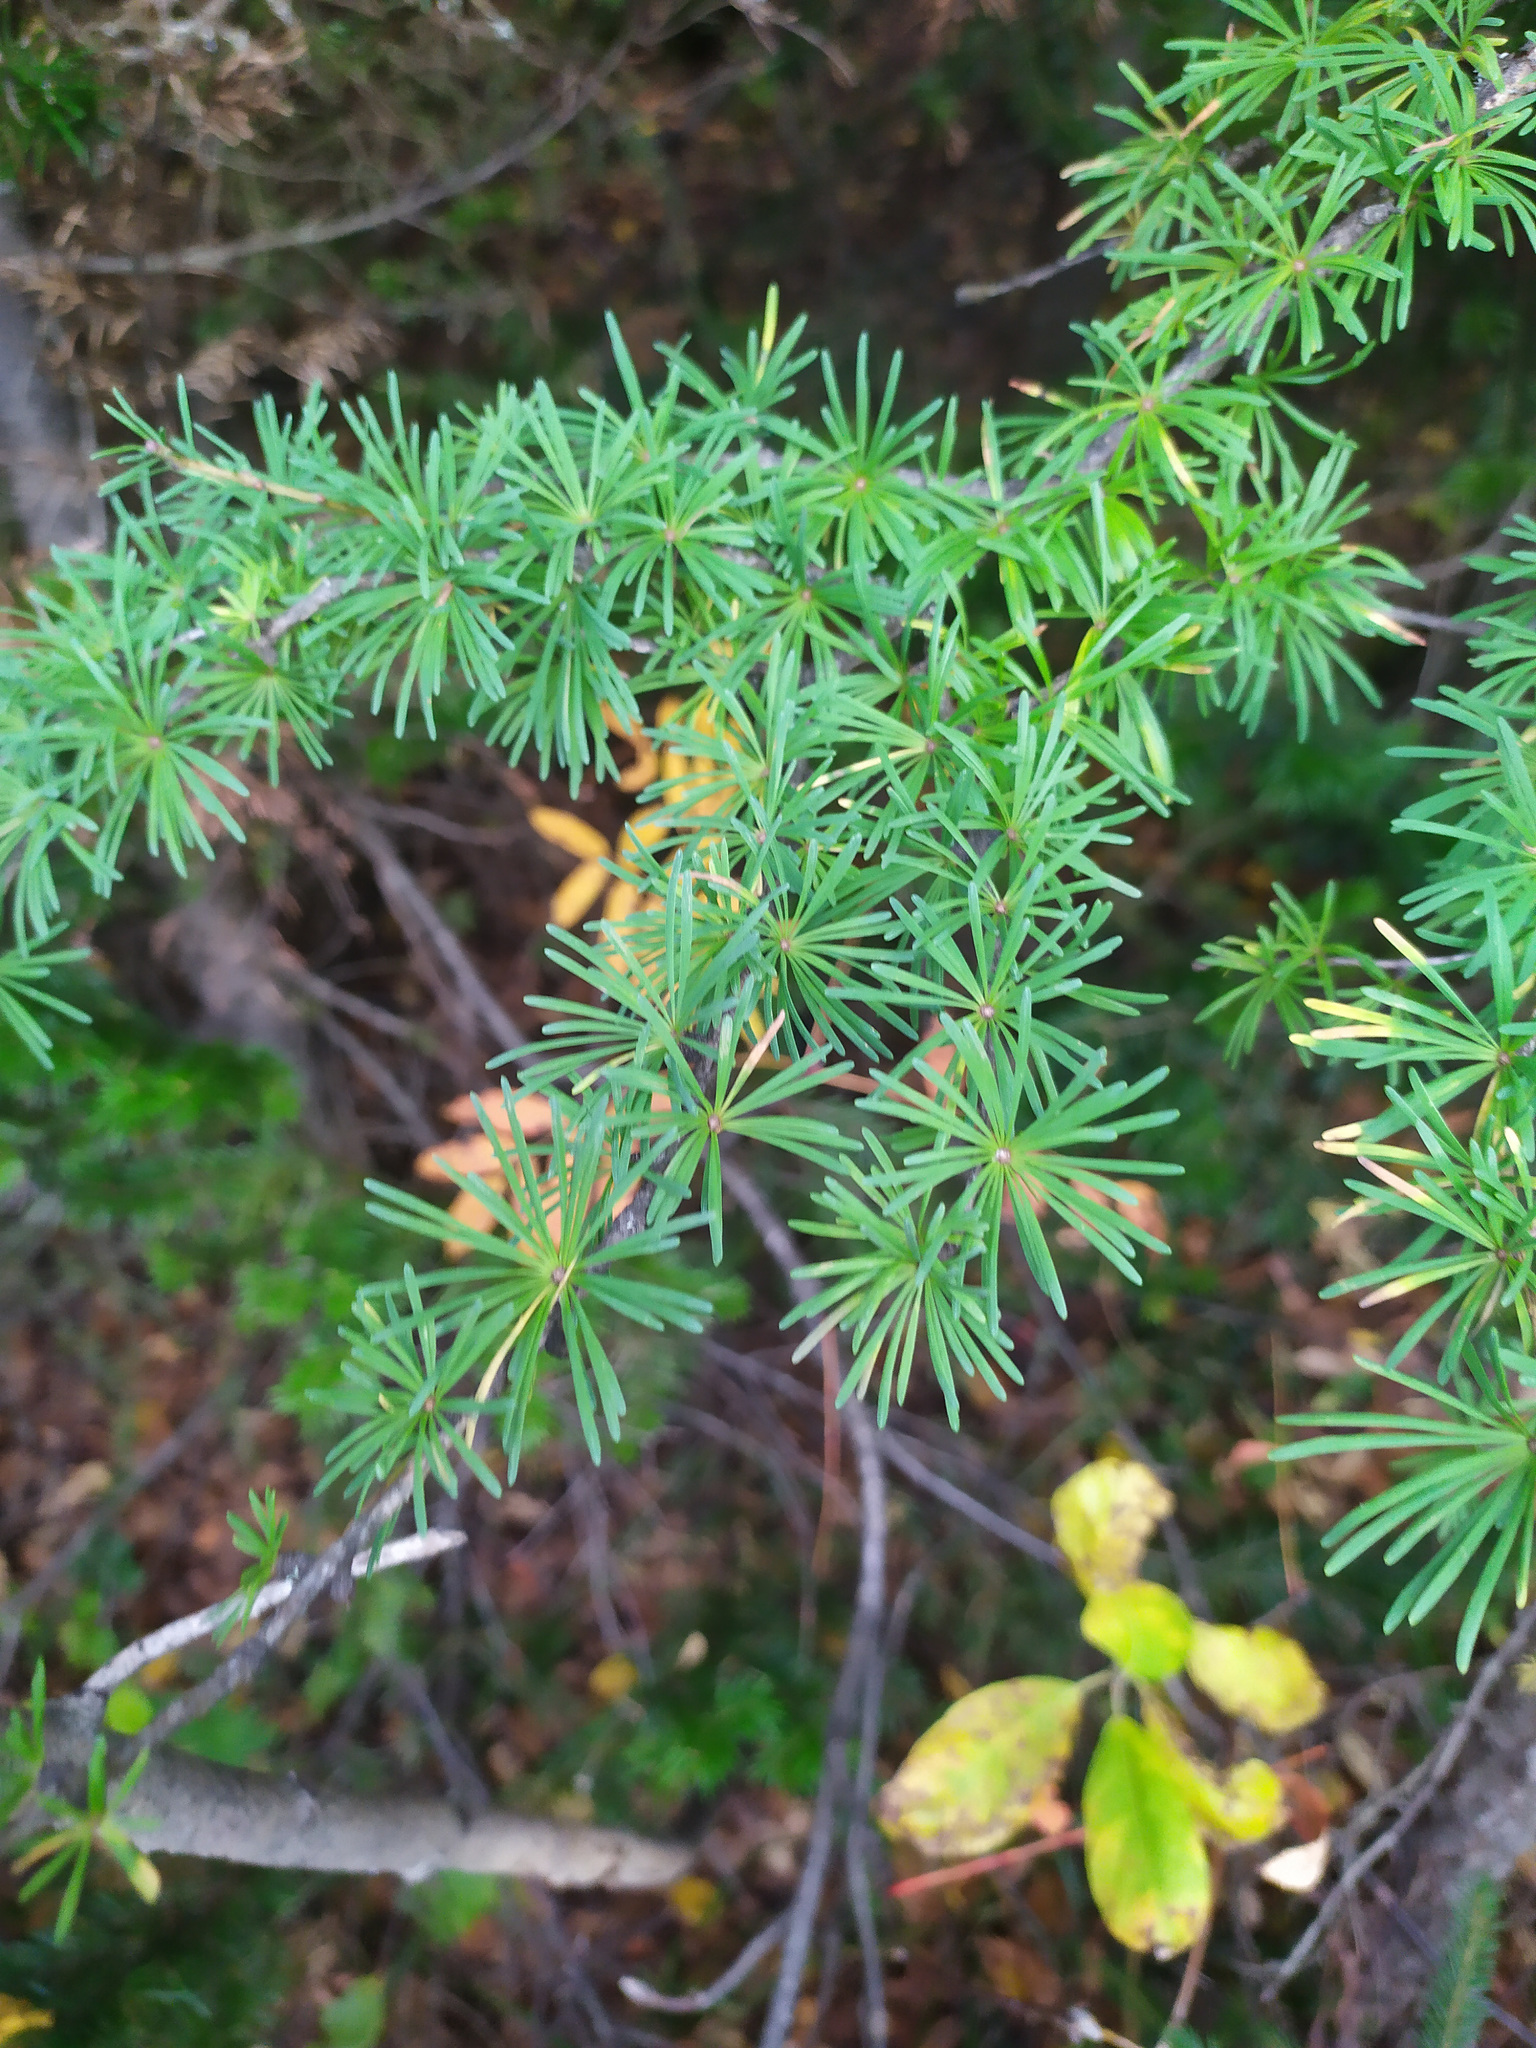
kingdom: Plantae
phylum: Tracheophyta
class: Pinopsida
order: Pinales
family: Pinaceae
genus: Larix
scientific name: Larix sibirica
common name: Siberian larch
